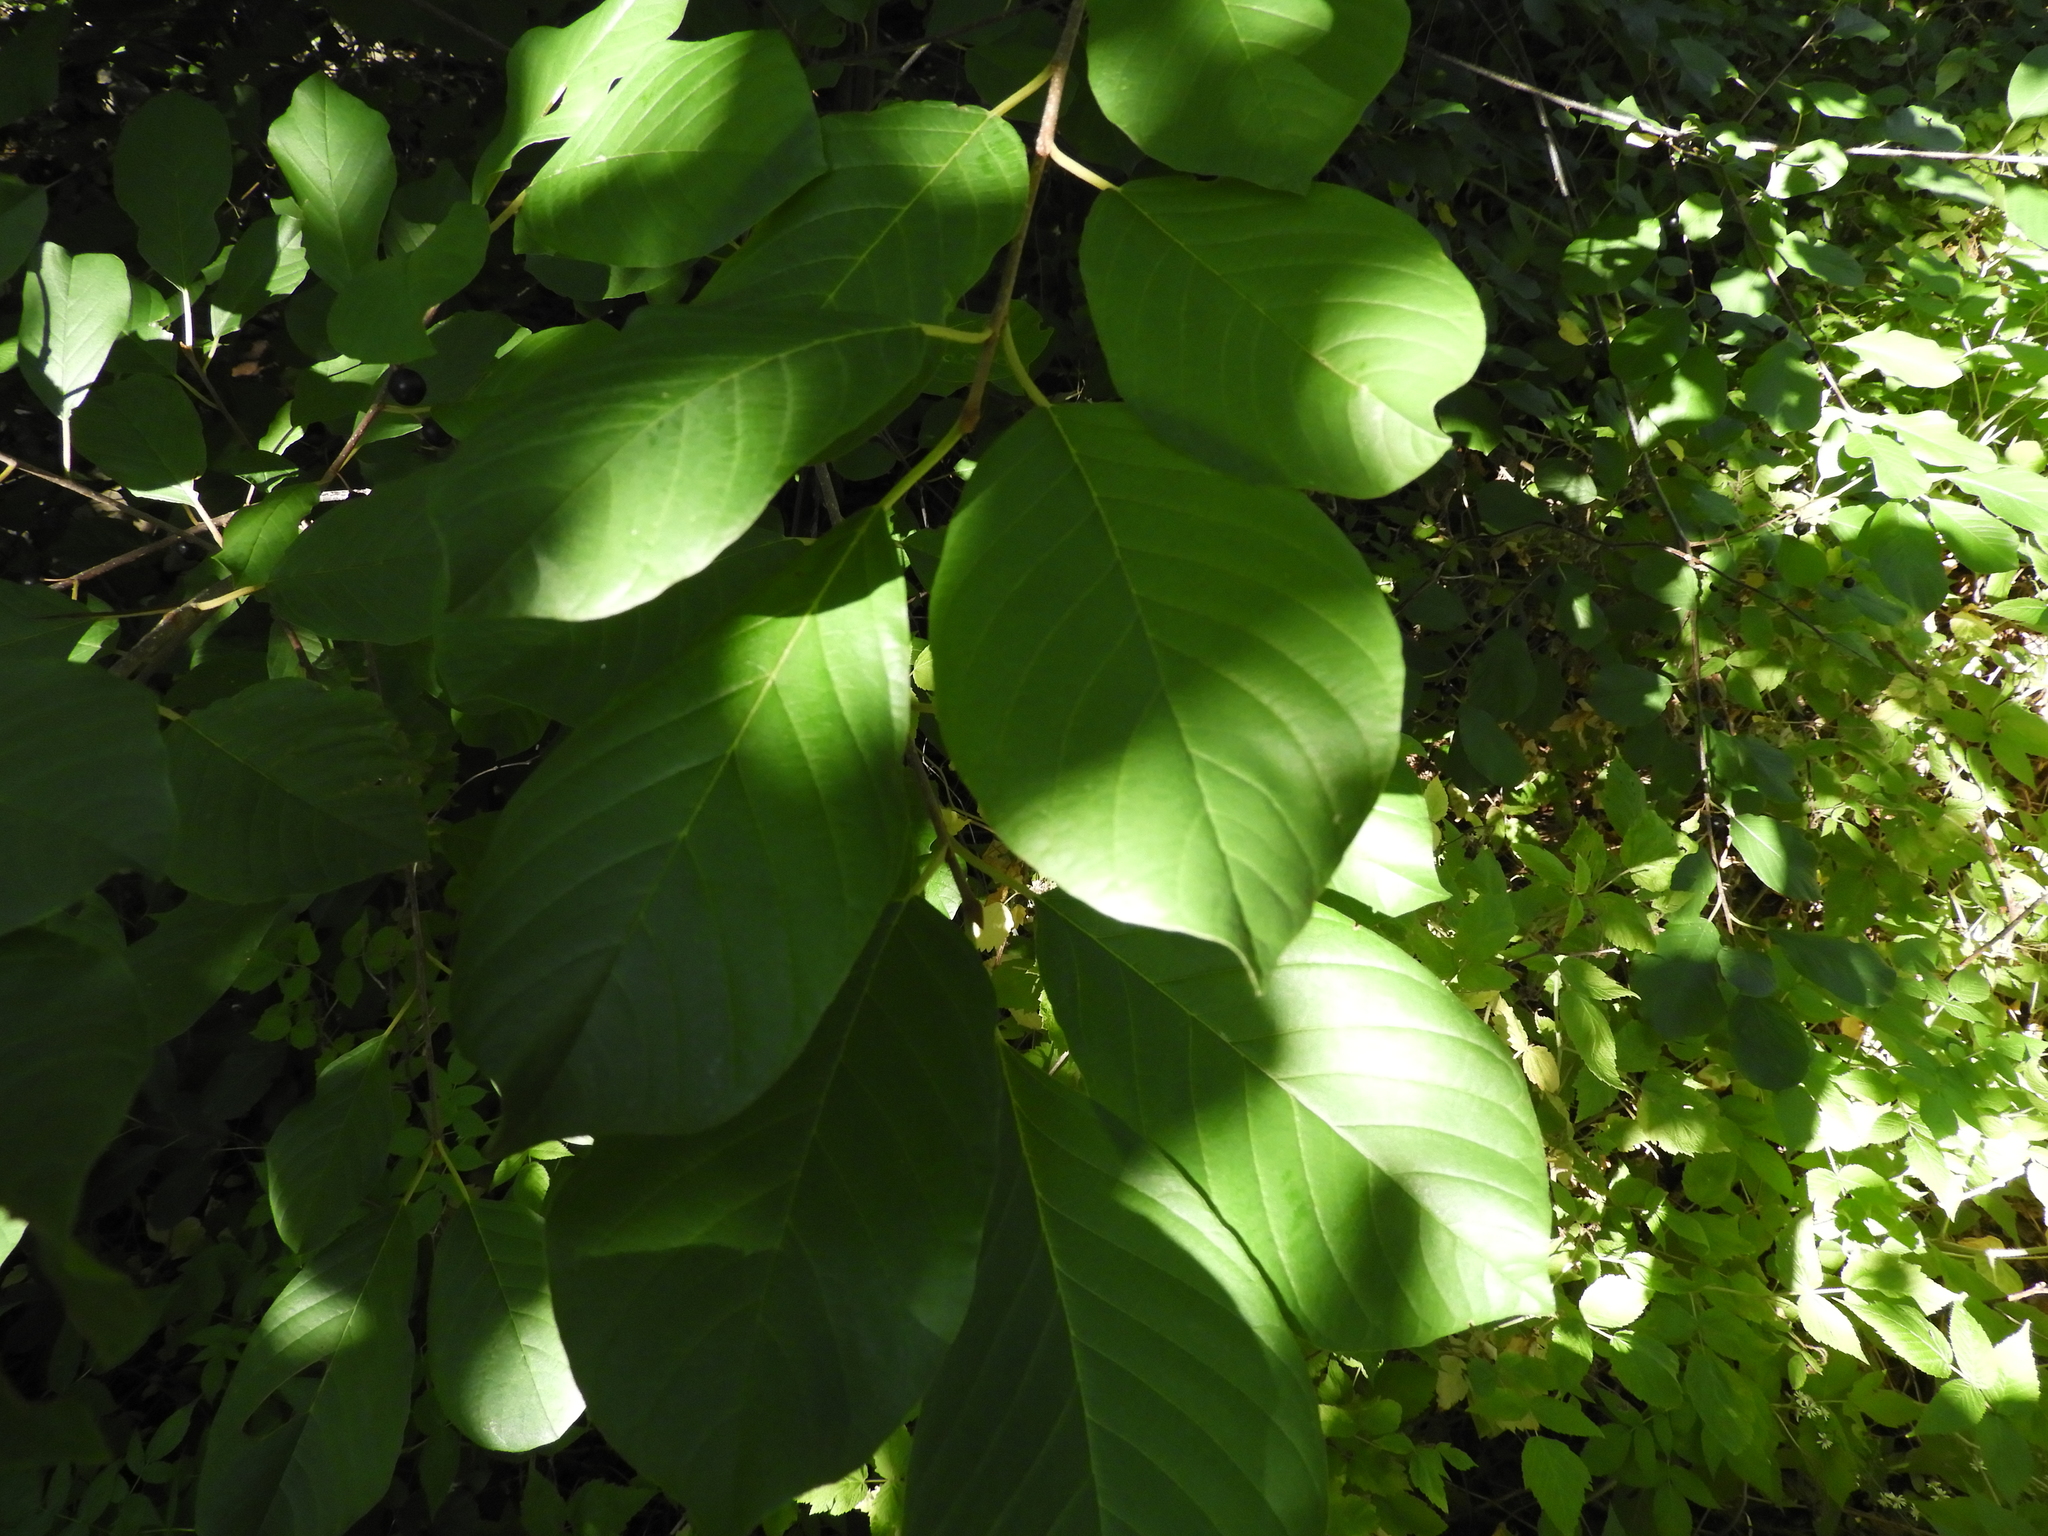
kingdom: Plantae
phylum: Tracheophyta
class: Magnoliopsida
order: Rosales
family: Rhamnaceae
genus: Frangula
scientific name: Frangula alnus
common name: Alder buckthorn
